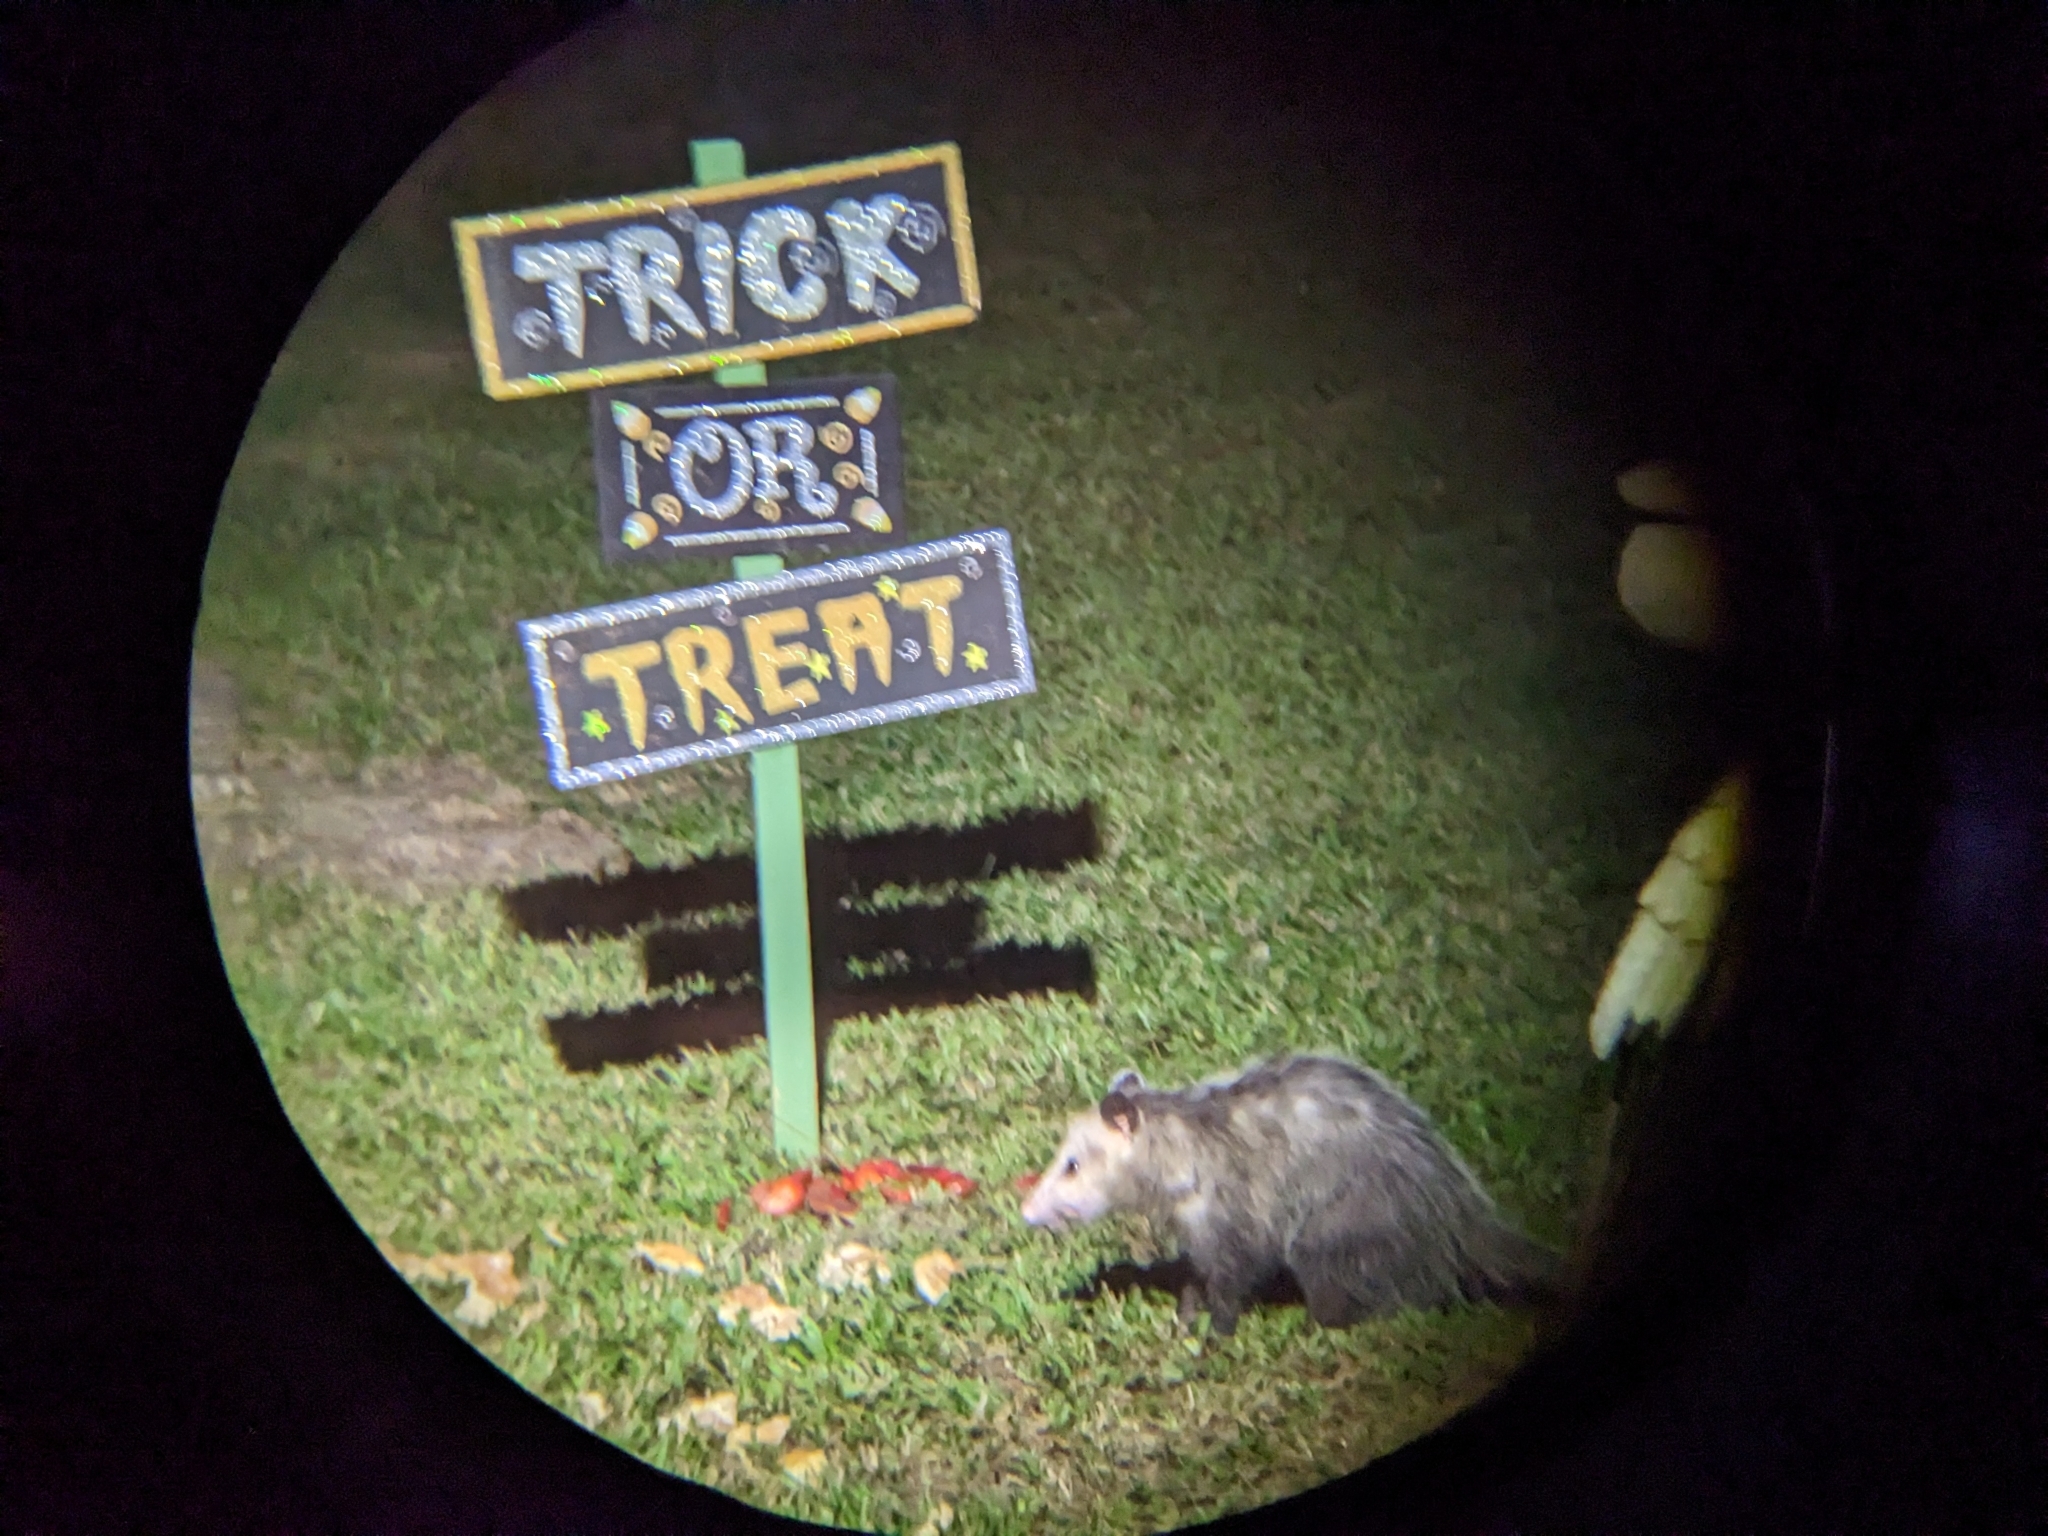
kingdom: Animalia
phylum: Chordata
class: Mammalia
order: Didelphimorphia
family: Didelphidae
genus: Didelphis
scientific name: Didelphis virginiana
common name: Virginia opossum
